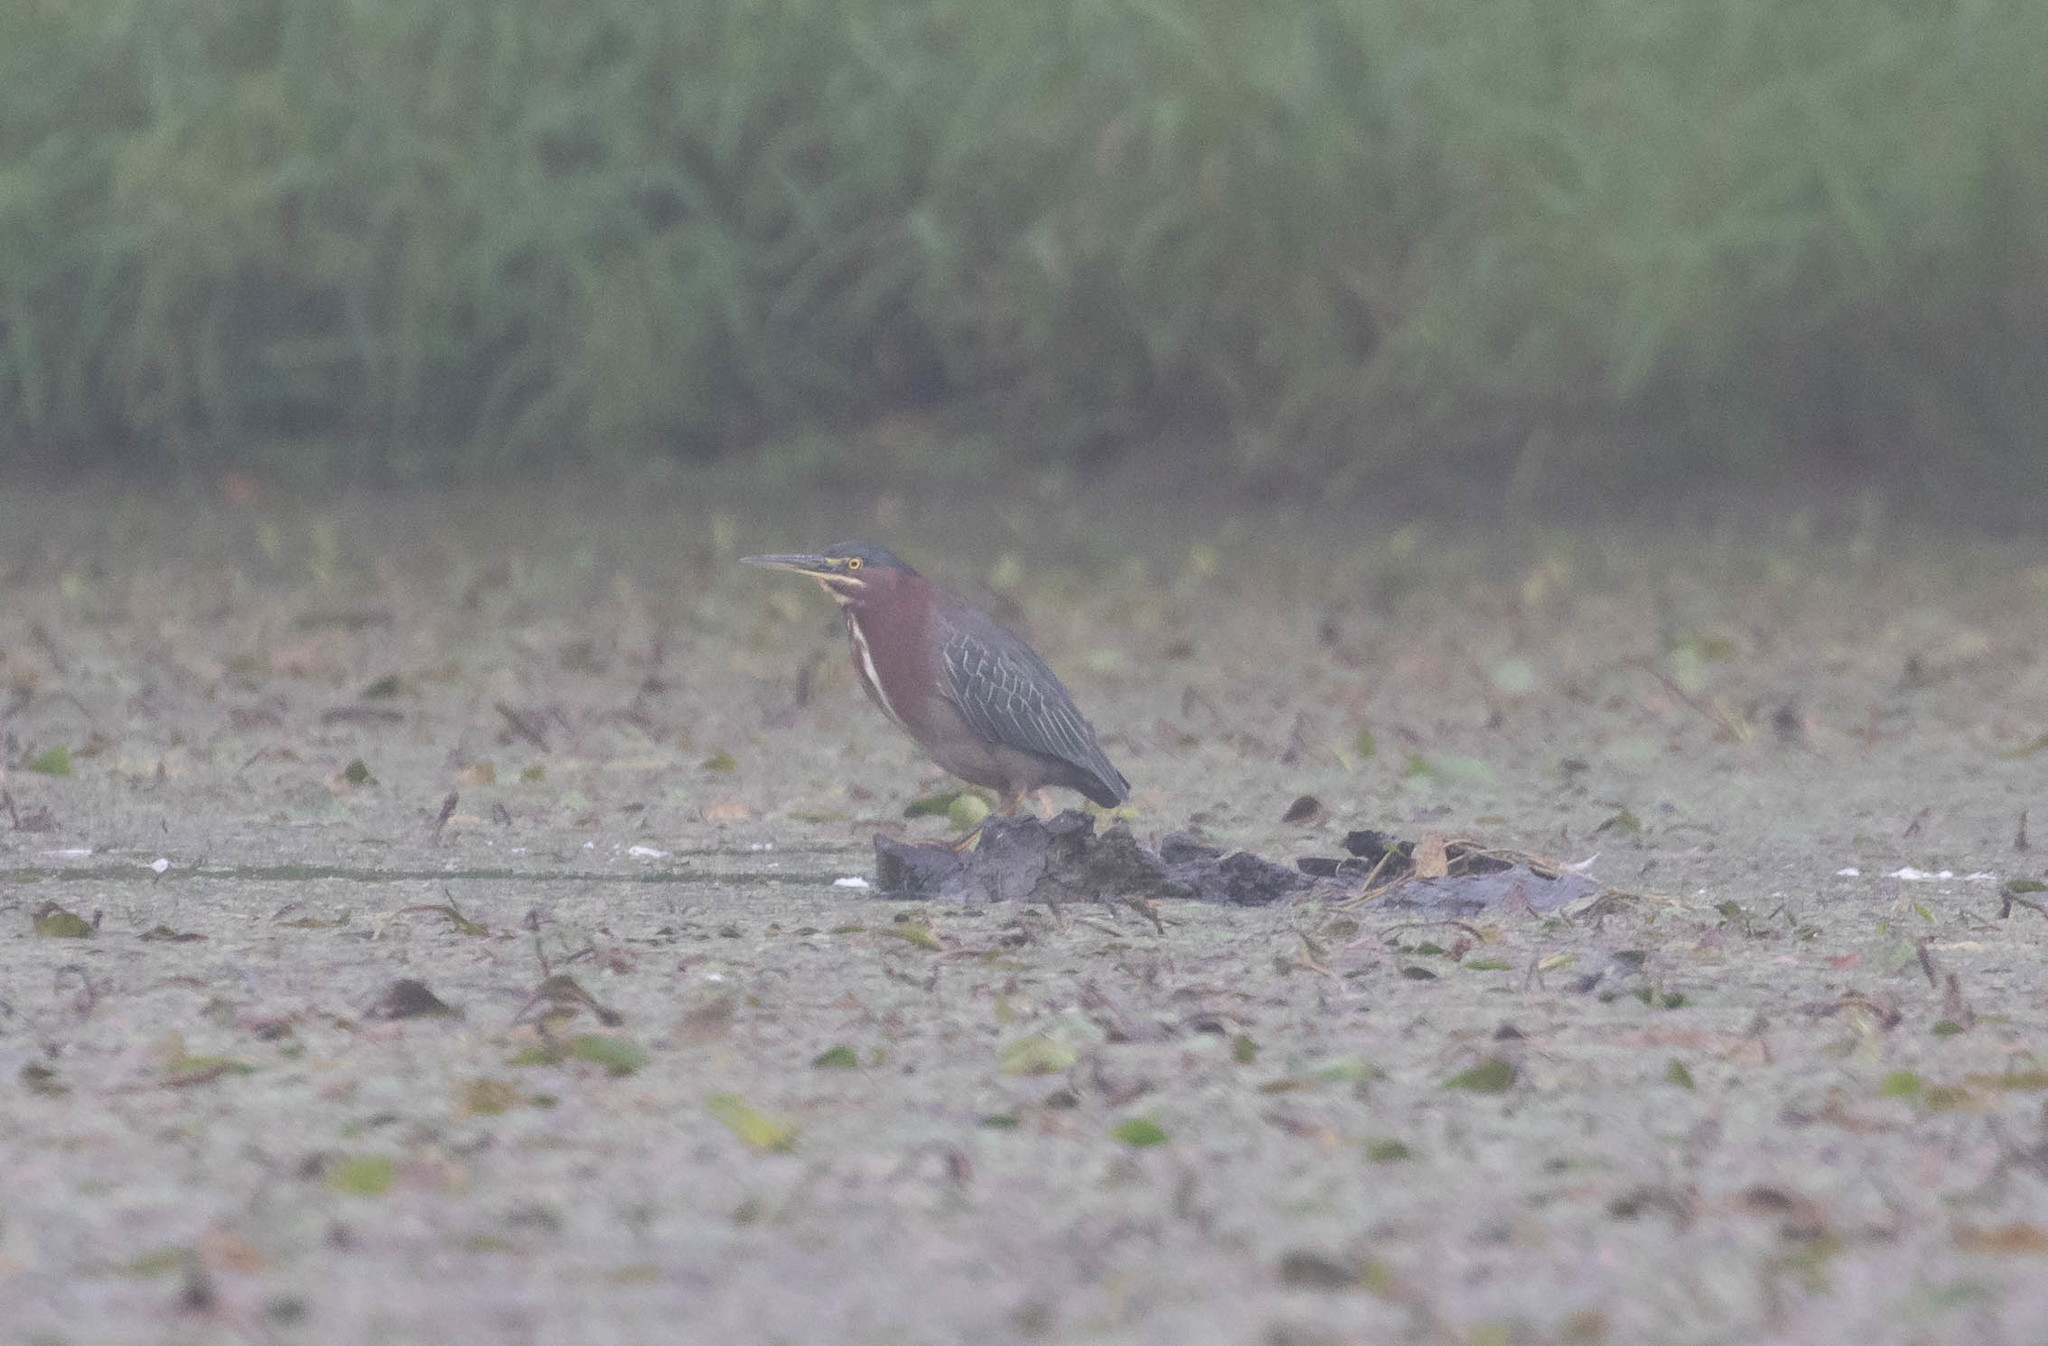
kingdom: Animalia
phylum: Chordata
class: Aves
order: Pelecaniformes
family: Ardeidae
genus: Butorides
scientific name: Butorides virescens
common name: Green heron
